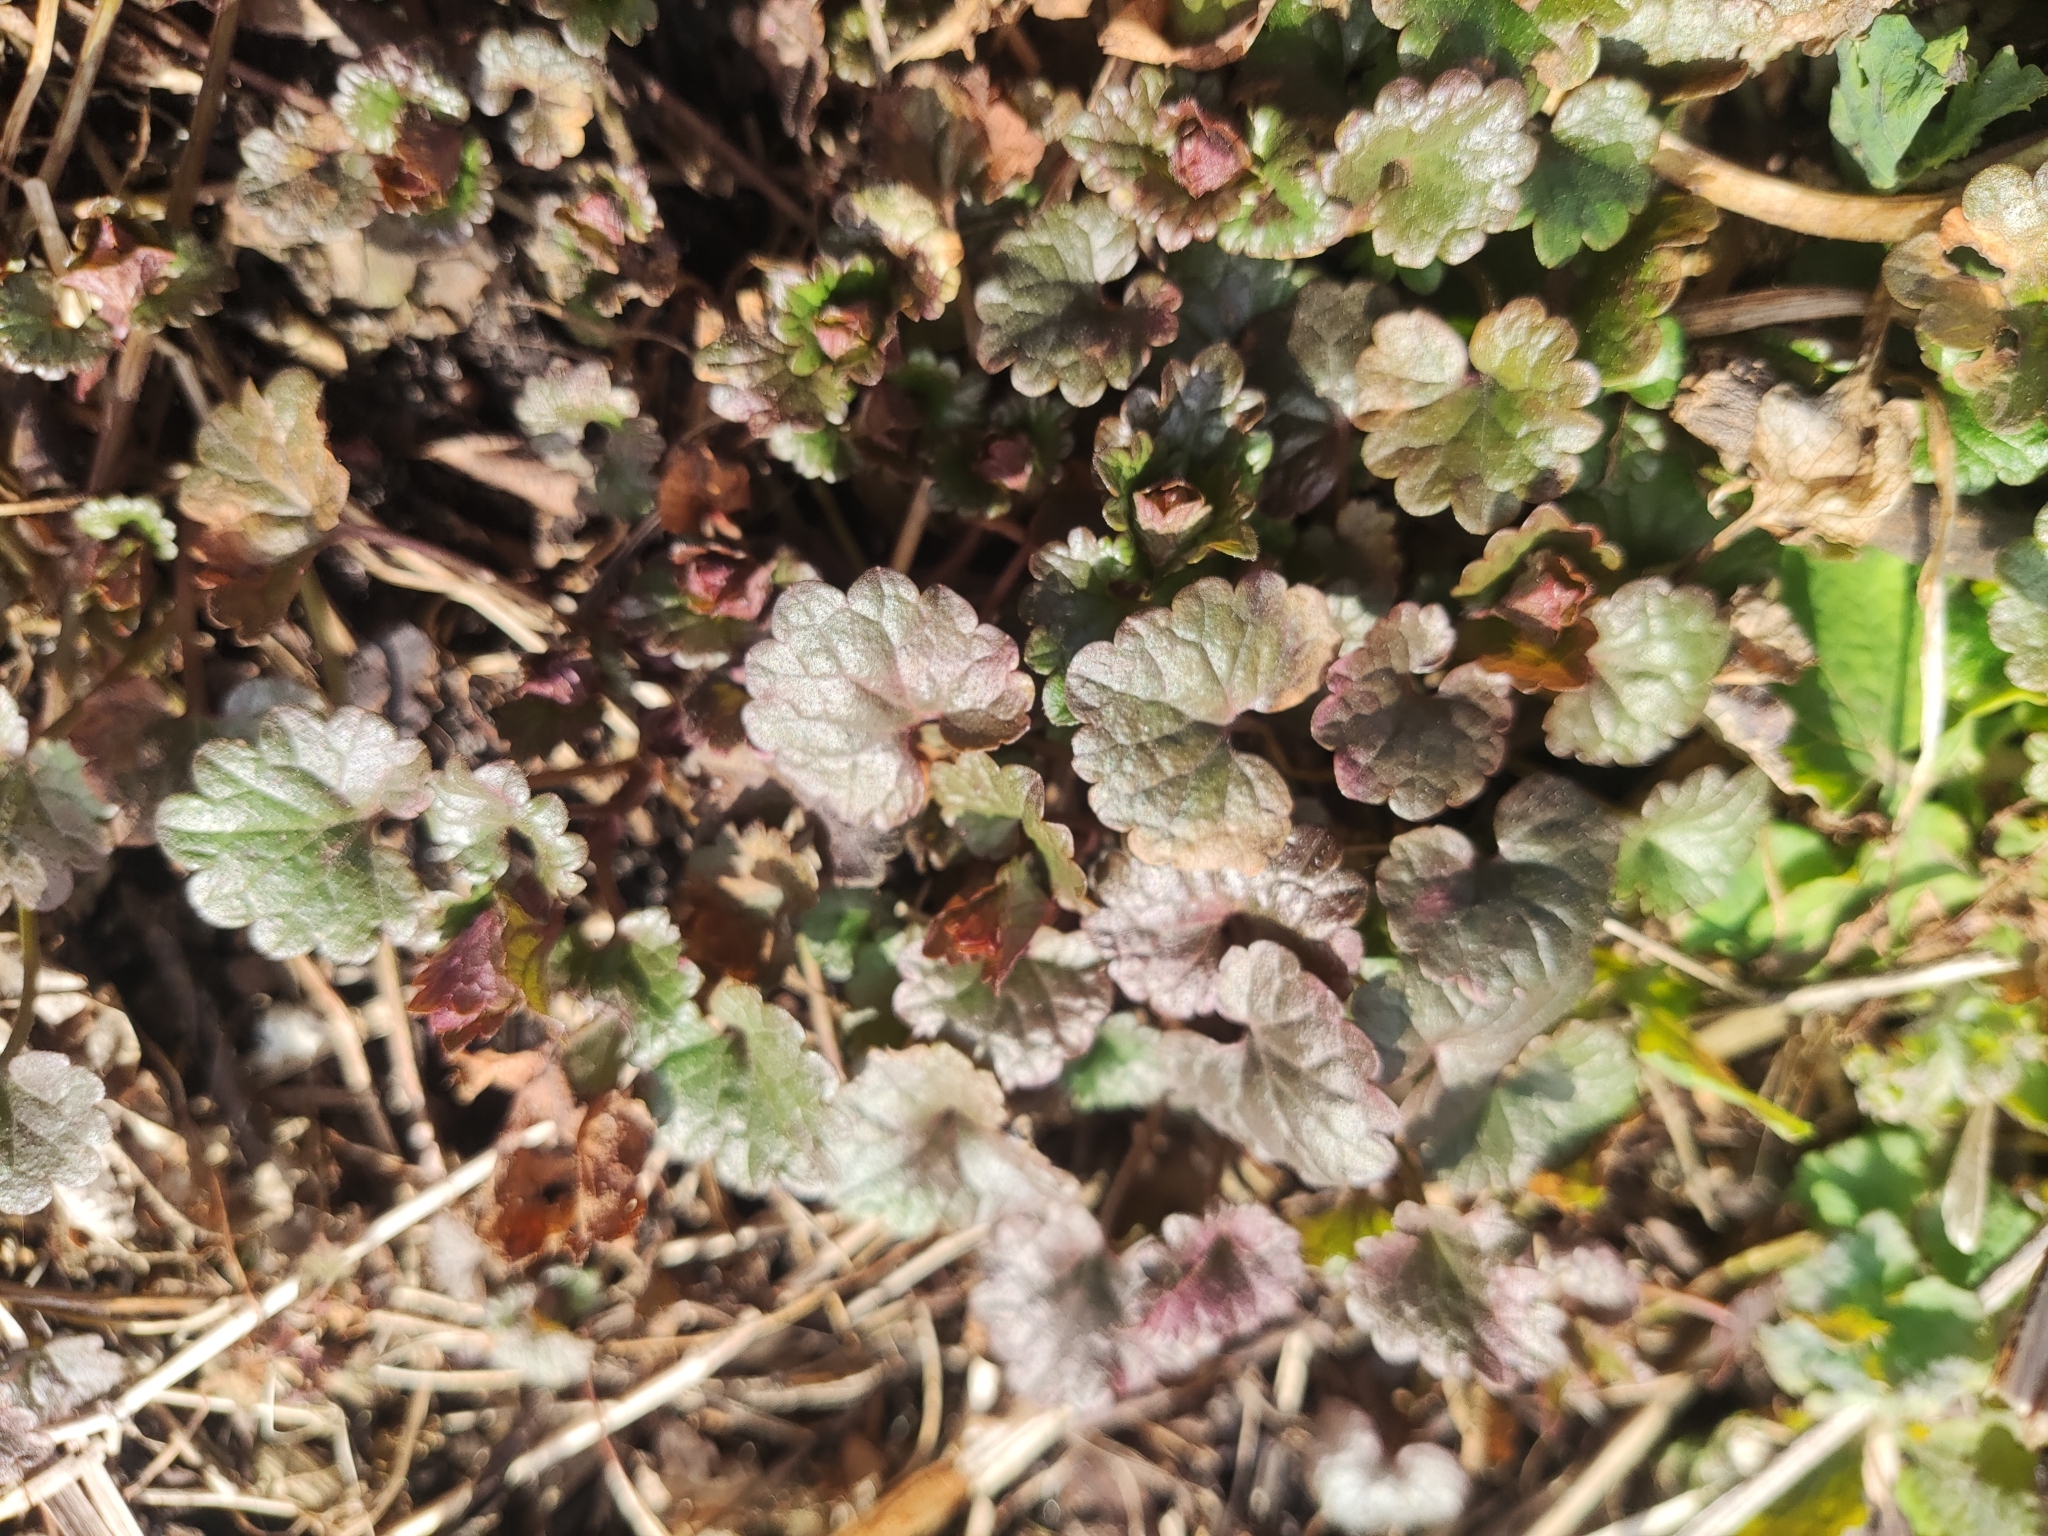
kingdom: Plantae
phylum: Tracheophyta
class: Magnoliopsida
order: Lamiales
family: Lamiaceae
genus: Glechoma
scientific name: Glechoma hederacea
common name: Ground ivy
